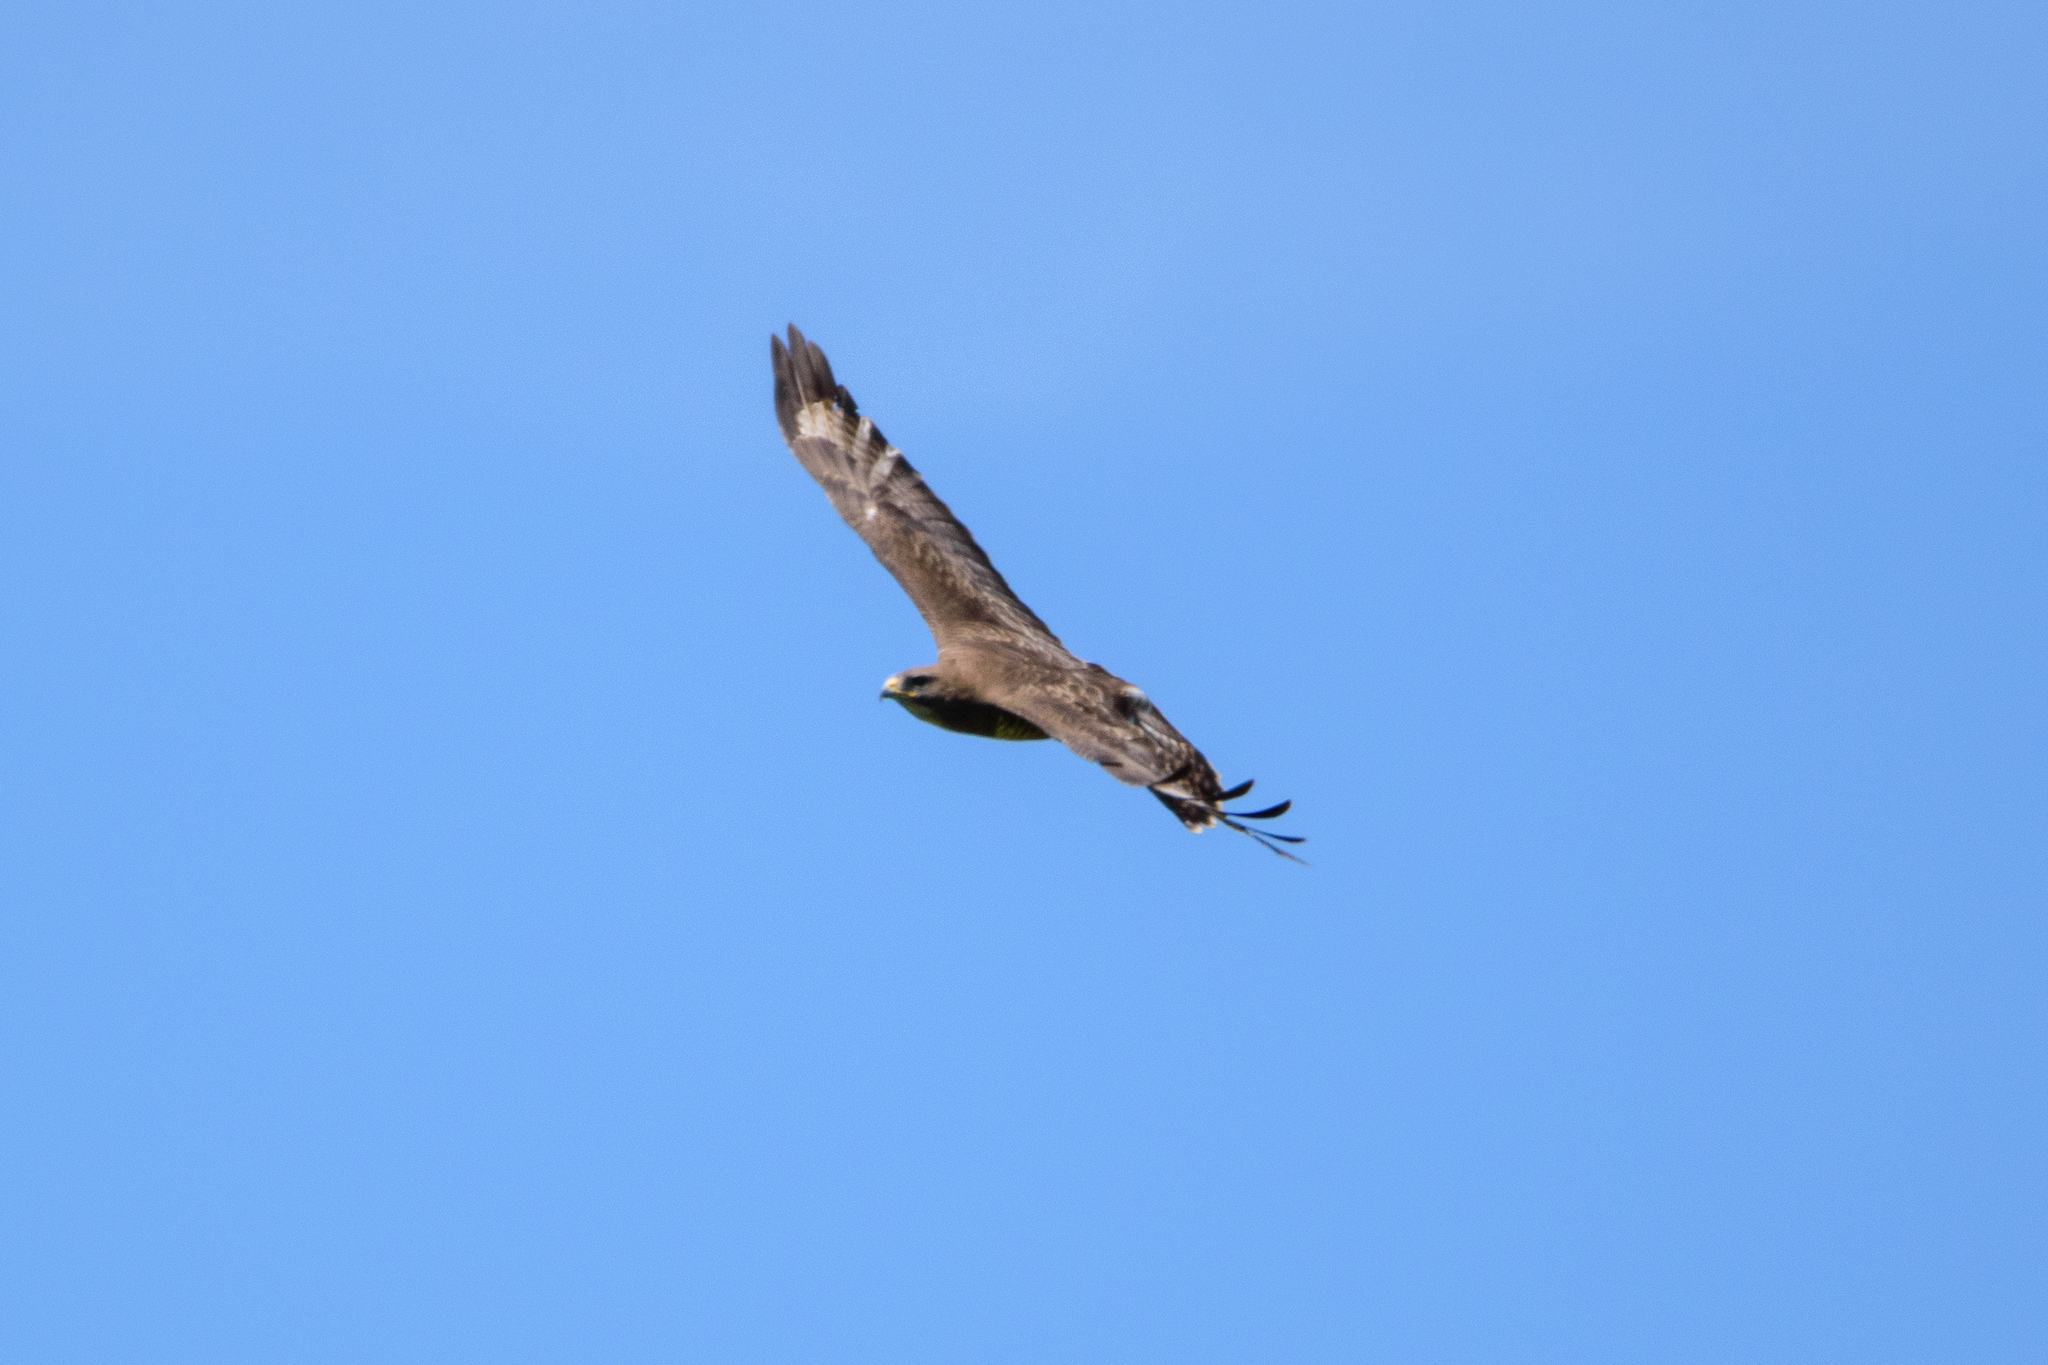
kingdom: Animalia
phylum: Chordata
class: Aves
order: Accipitriformes
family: Accipitridae
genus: Buteo
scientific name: Buteo buteo
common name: Common buzzard
